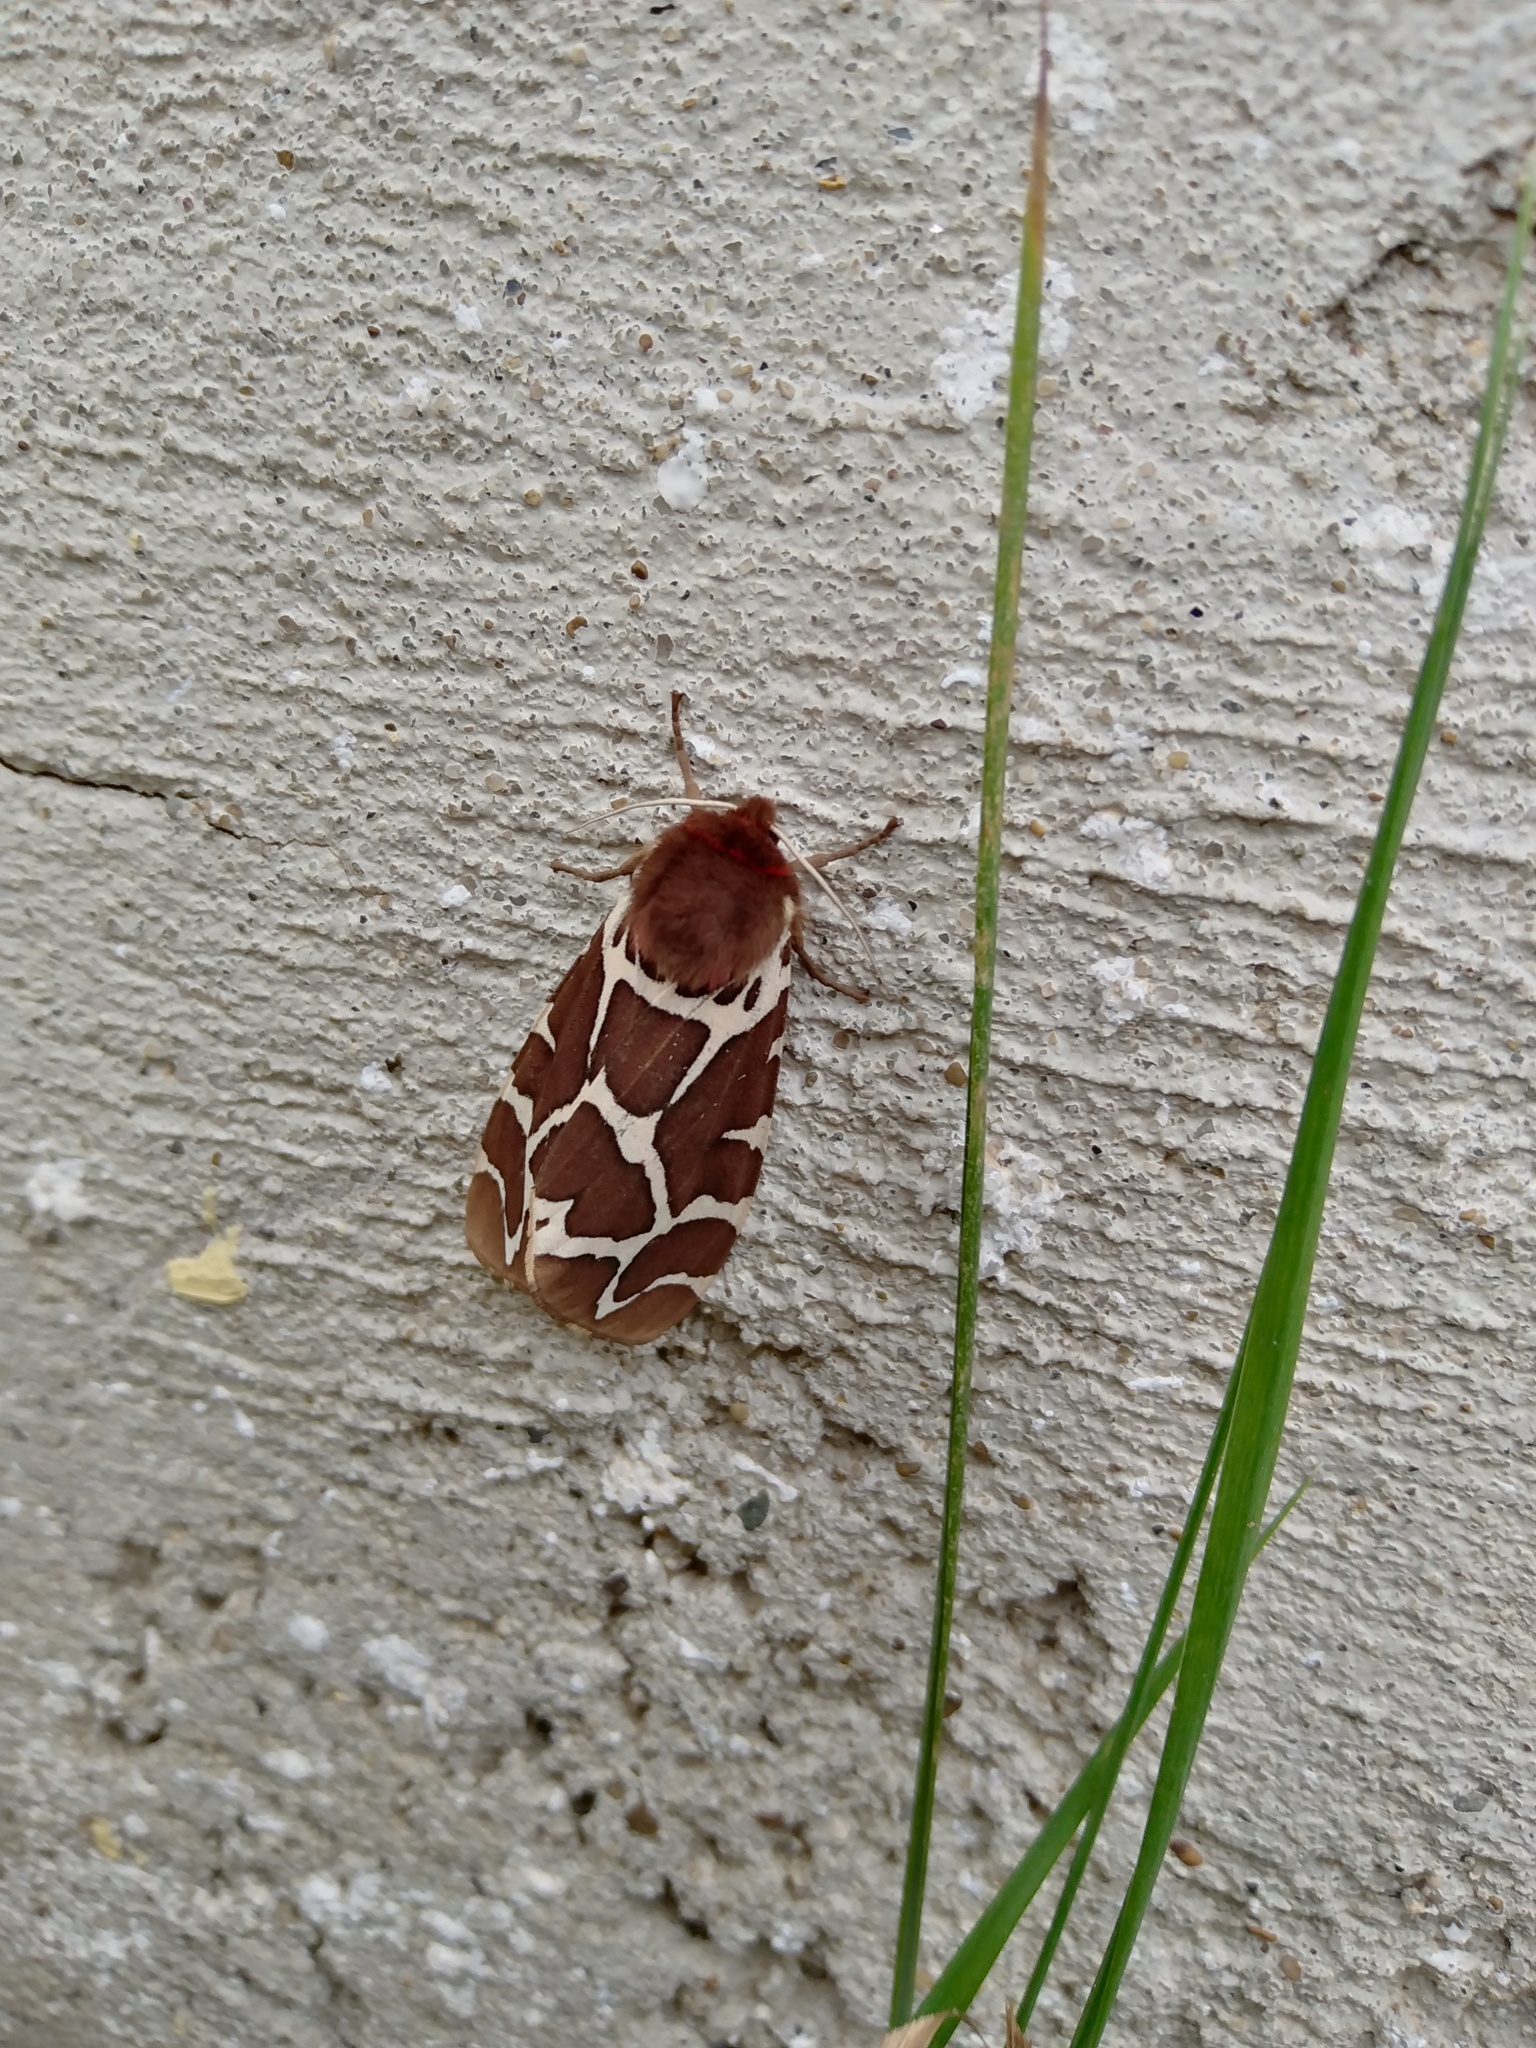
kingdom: Animalia
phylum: Arthropoda
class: Insecta
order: Lepidoptera
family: Erebidae
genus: Arctia
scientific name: Arctia caja
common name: Garden tiger
